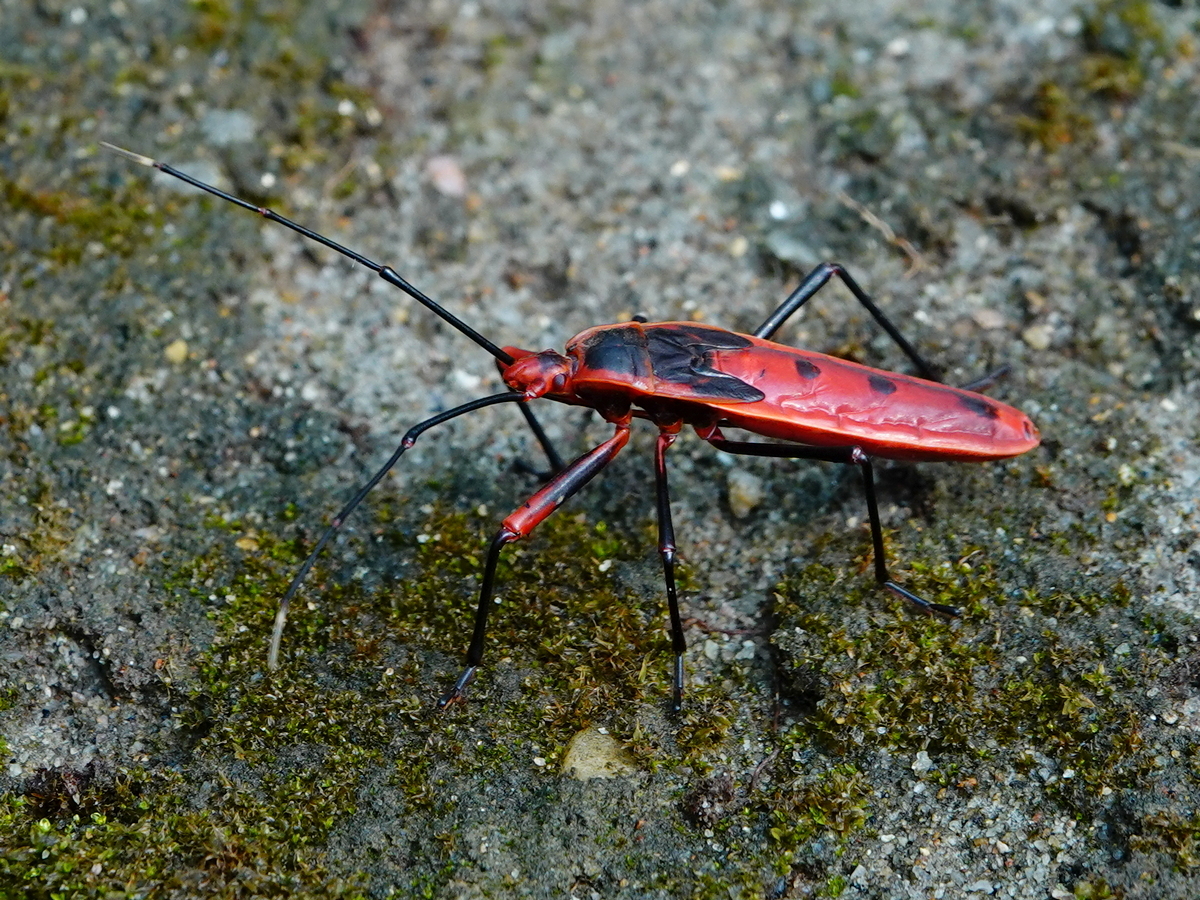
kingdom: Animalia
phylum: Arthropoda
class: Insecta
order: Hemiptera
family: Largidae
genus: Macrocheraia
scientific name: Macrocheraia grandis
